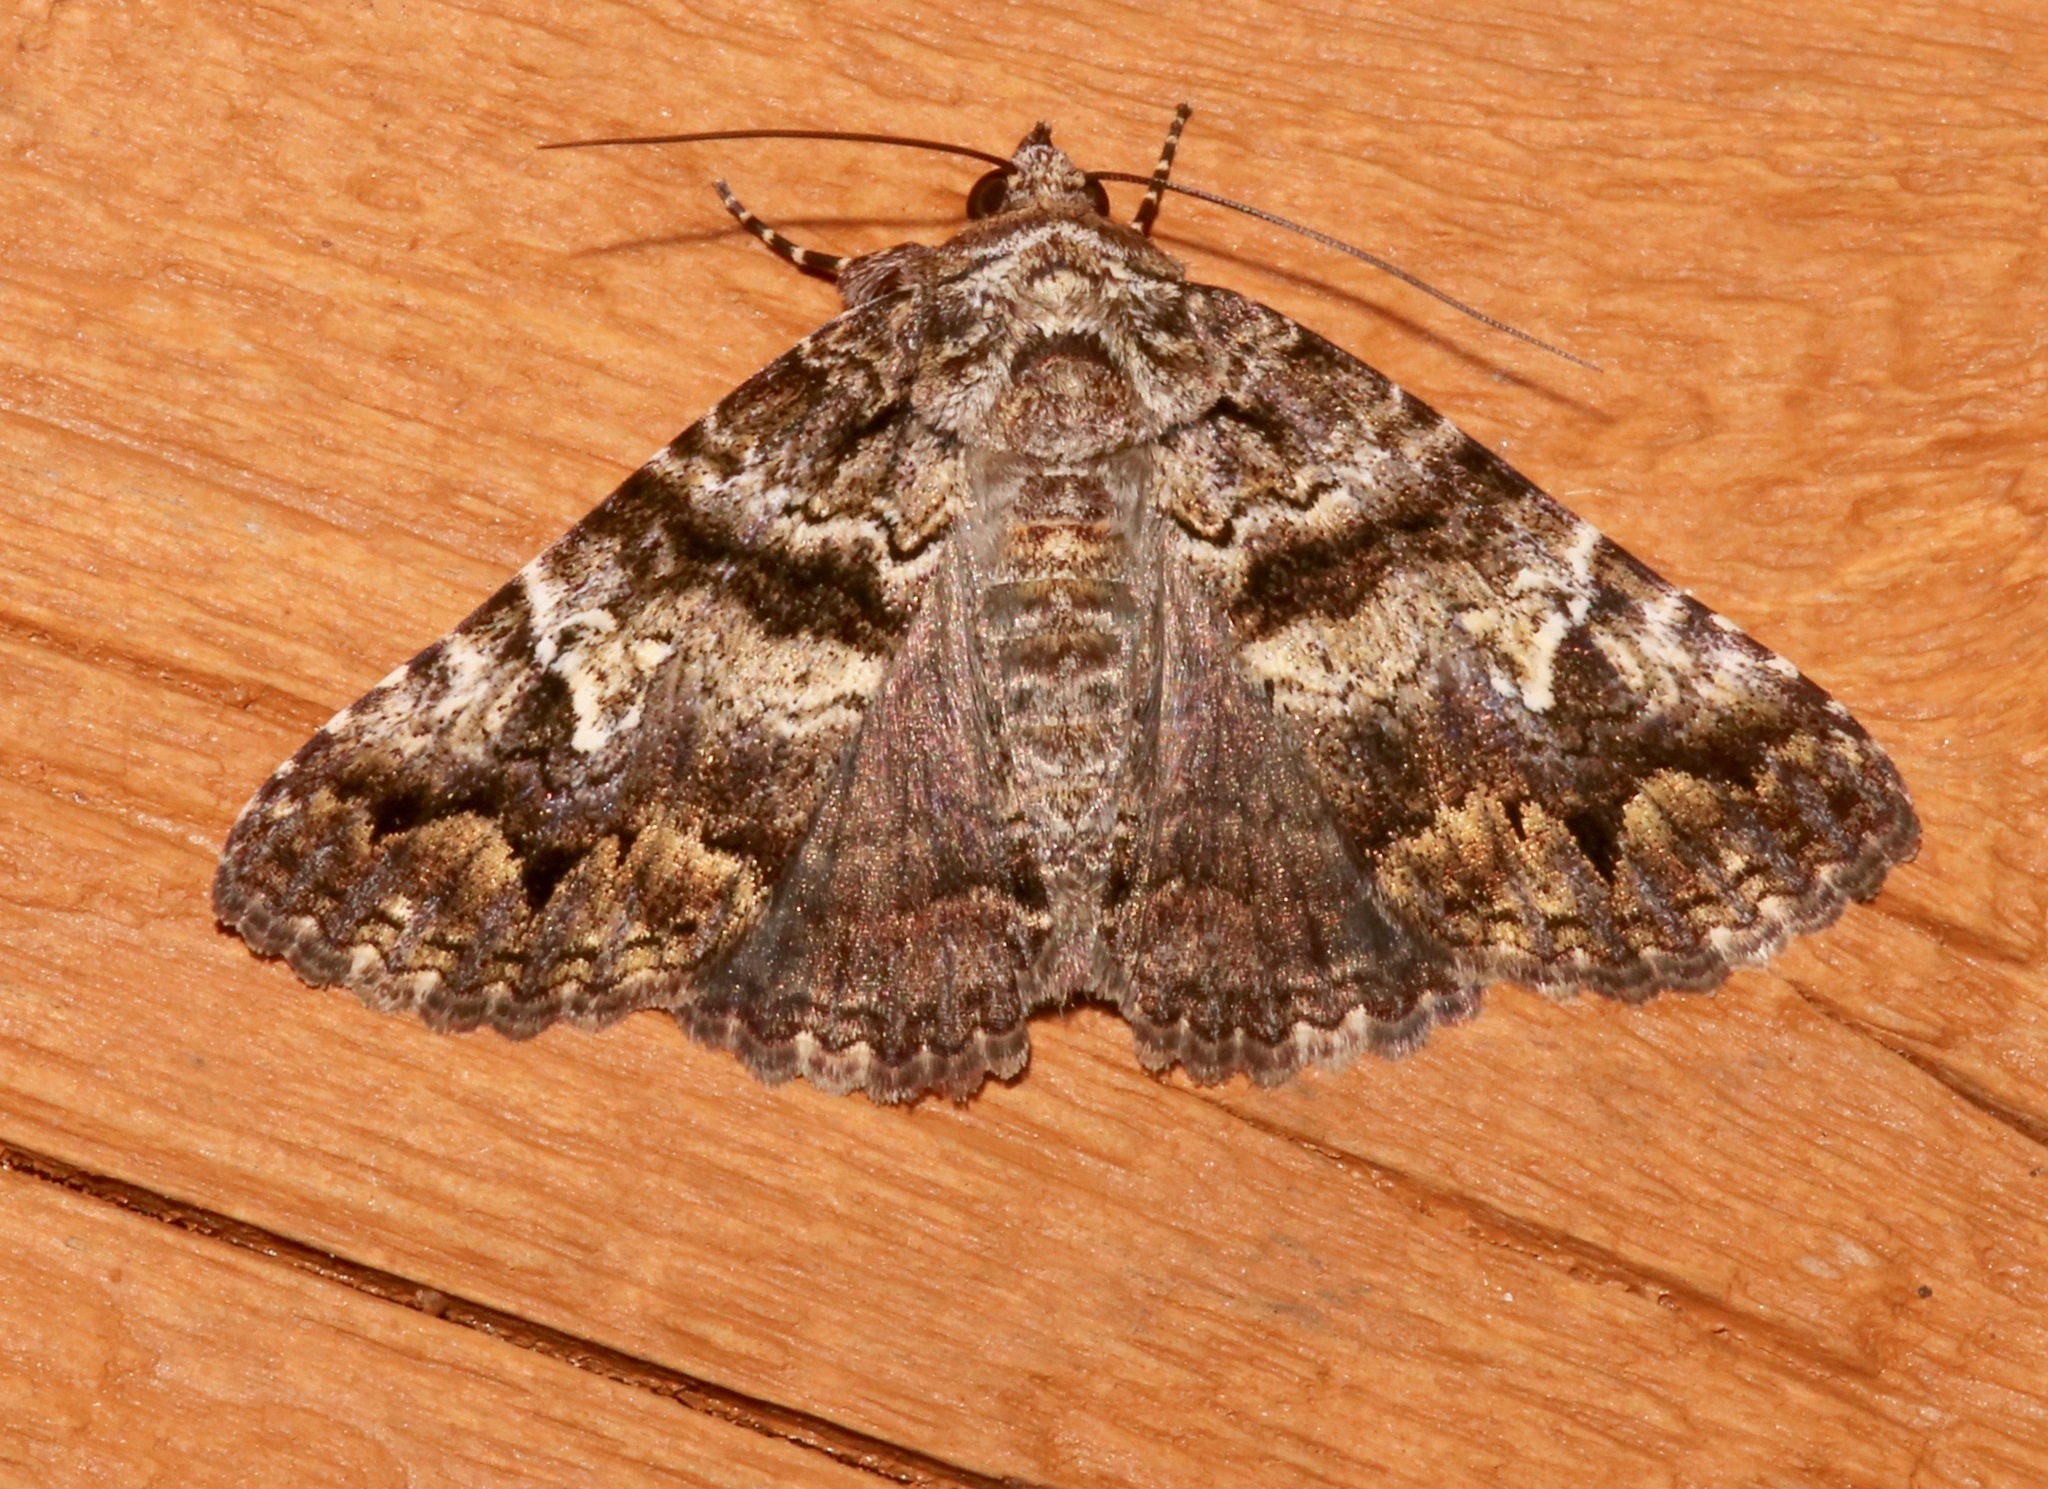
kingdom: Animalia
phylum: Arthropoda
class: Insecta
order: Lepidoptera
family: Erebidae
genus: Metria
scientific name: Metria amella
